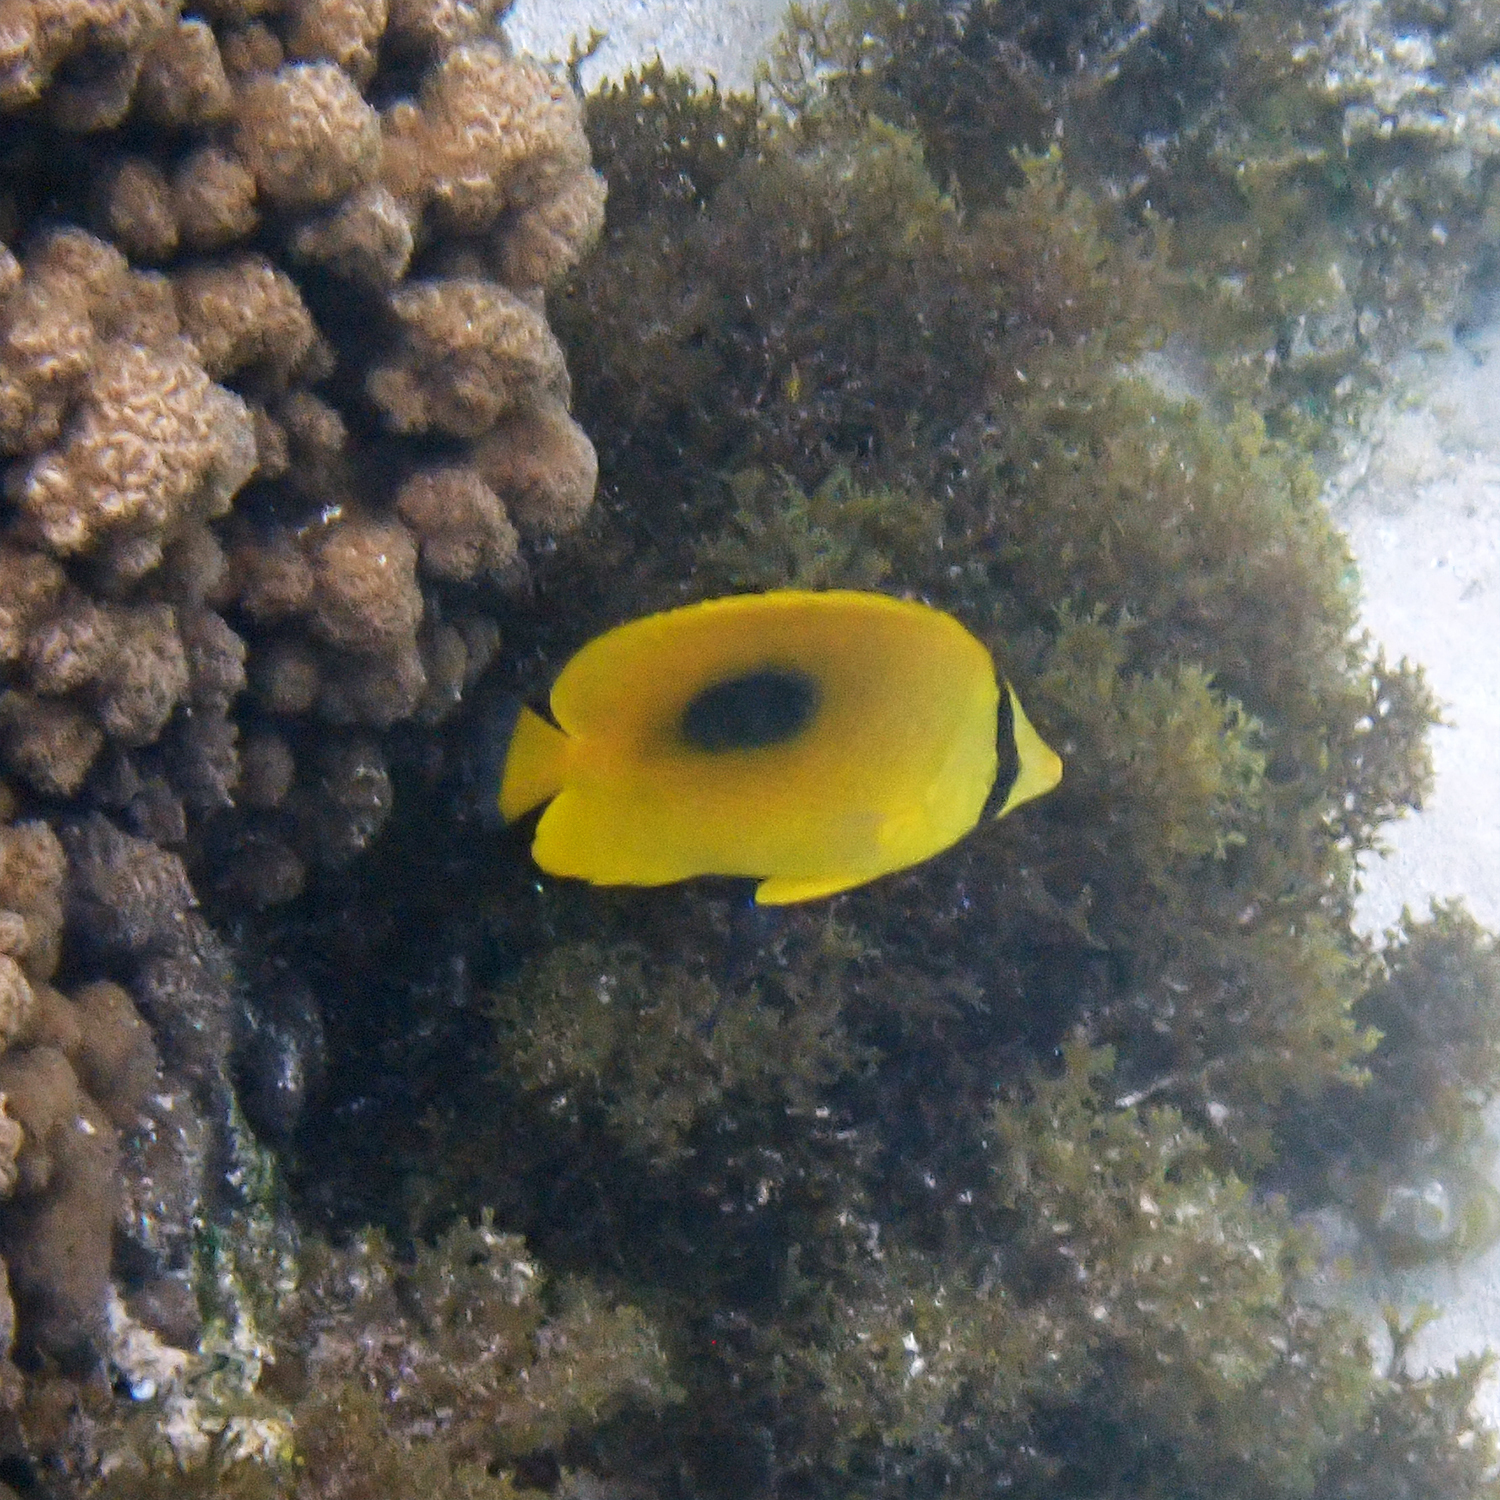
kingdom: Animalia
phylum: Chordata
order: Perciformes
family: Chaetodontidae
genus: Chaetodon
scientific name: Chaetodon speculum
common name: Mirror butterflyfish
